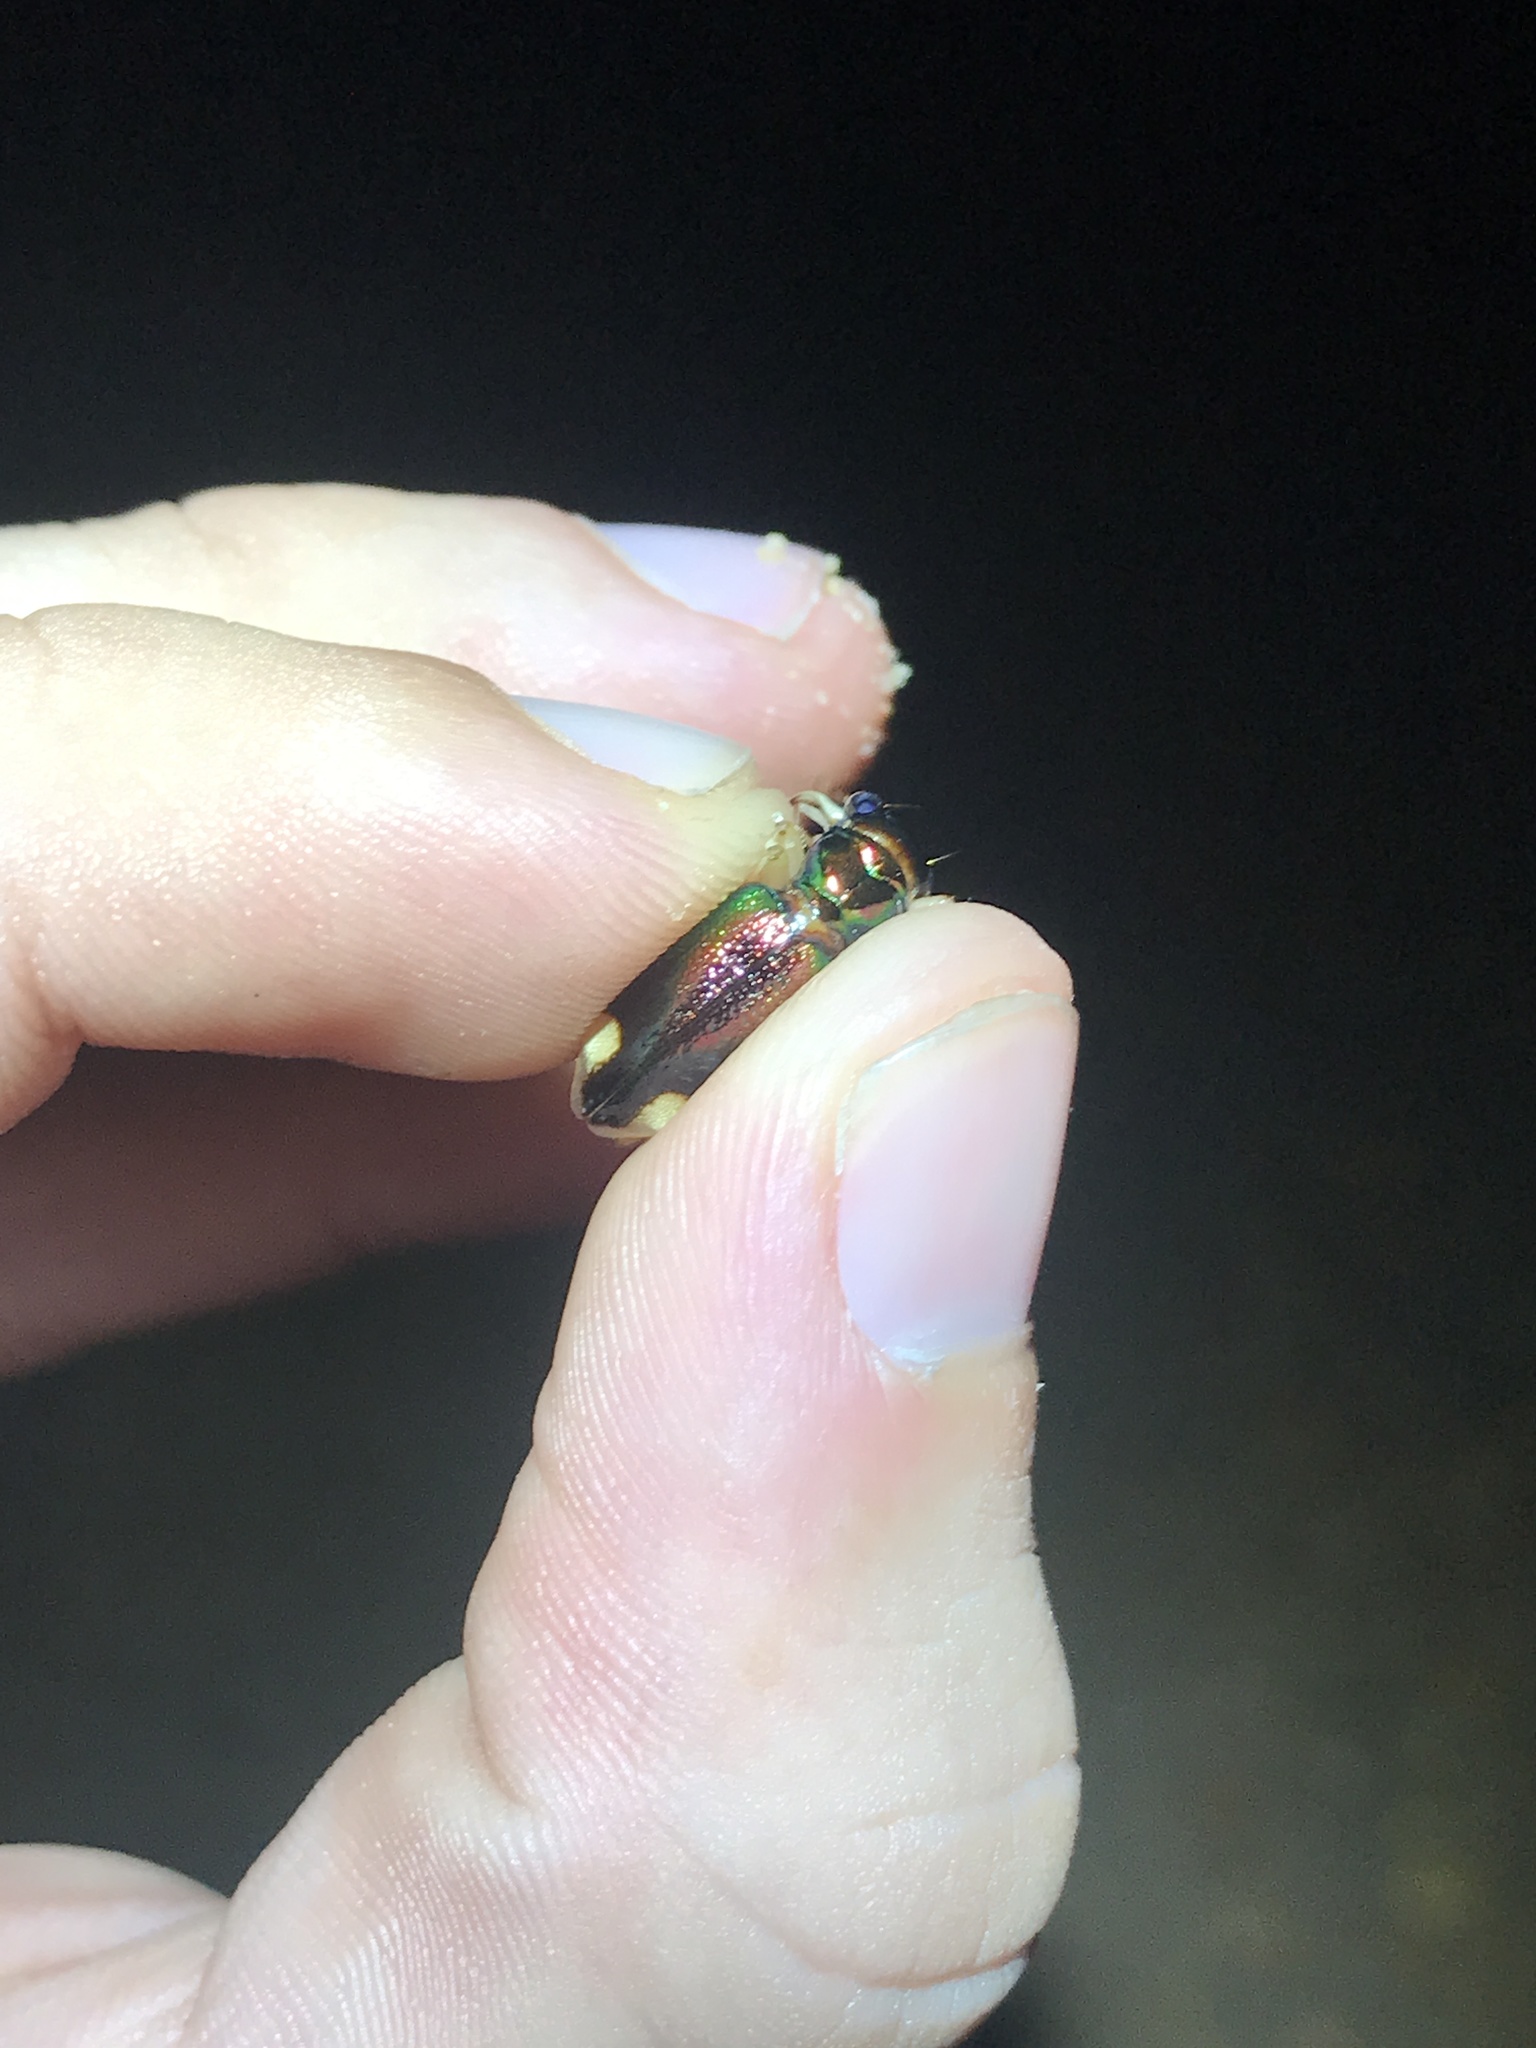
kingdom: Animalia
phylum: Arthropoda
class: Insecta
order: Coleoptera
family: Carabidae
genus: Tetracha
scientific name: Tetracha carolina
